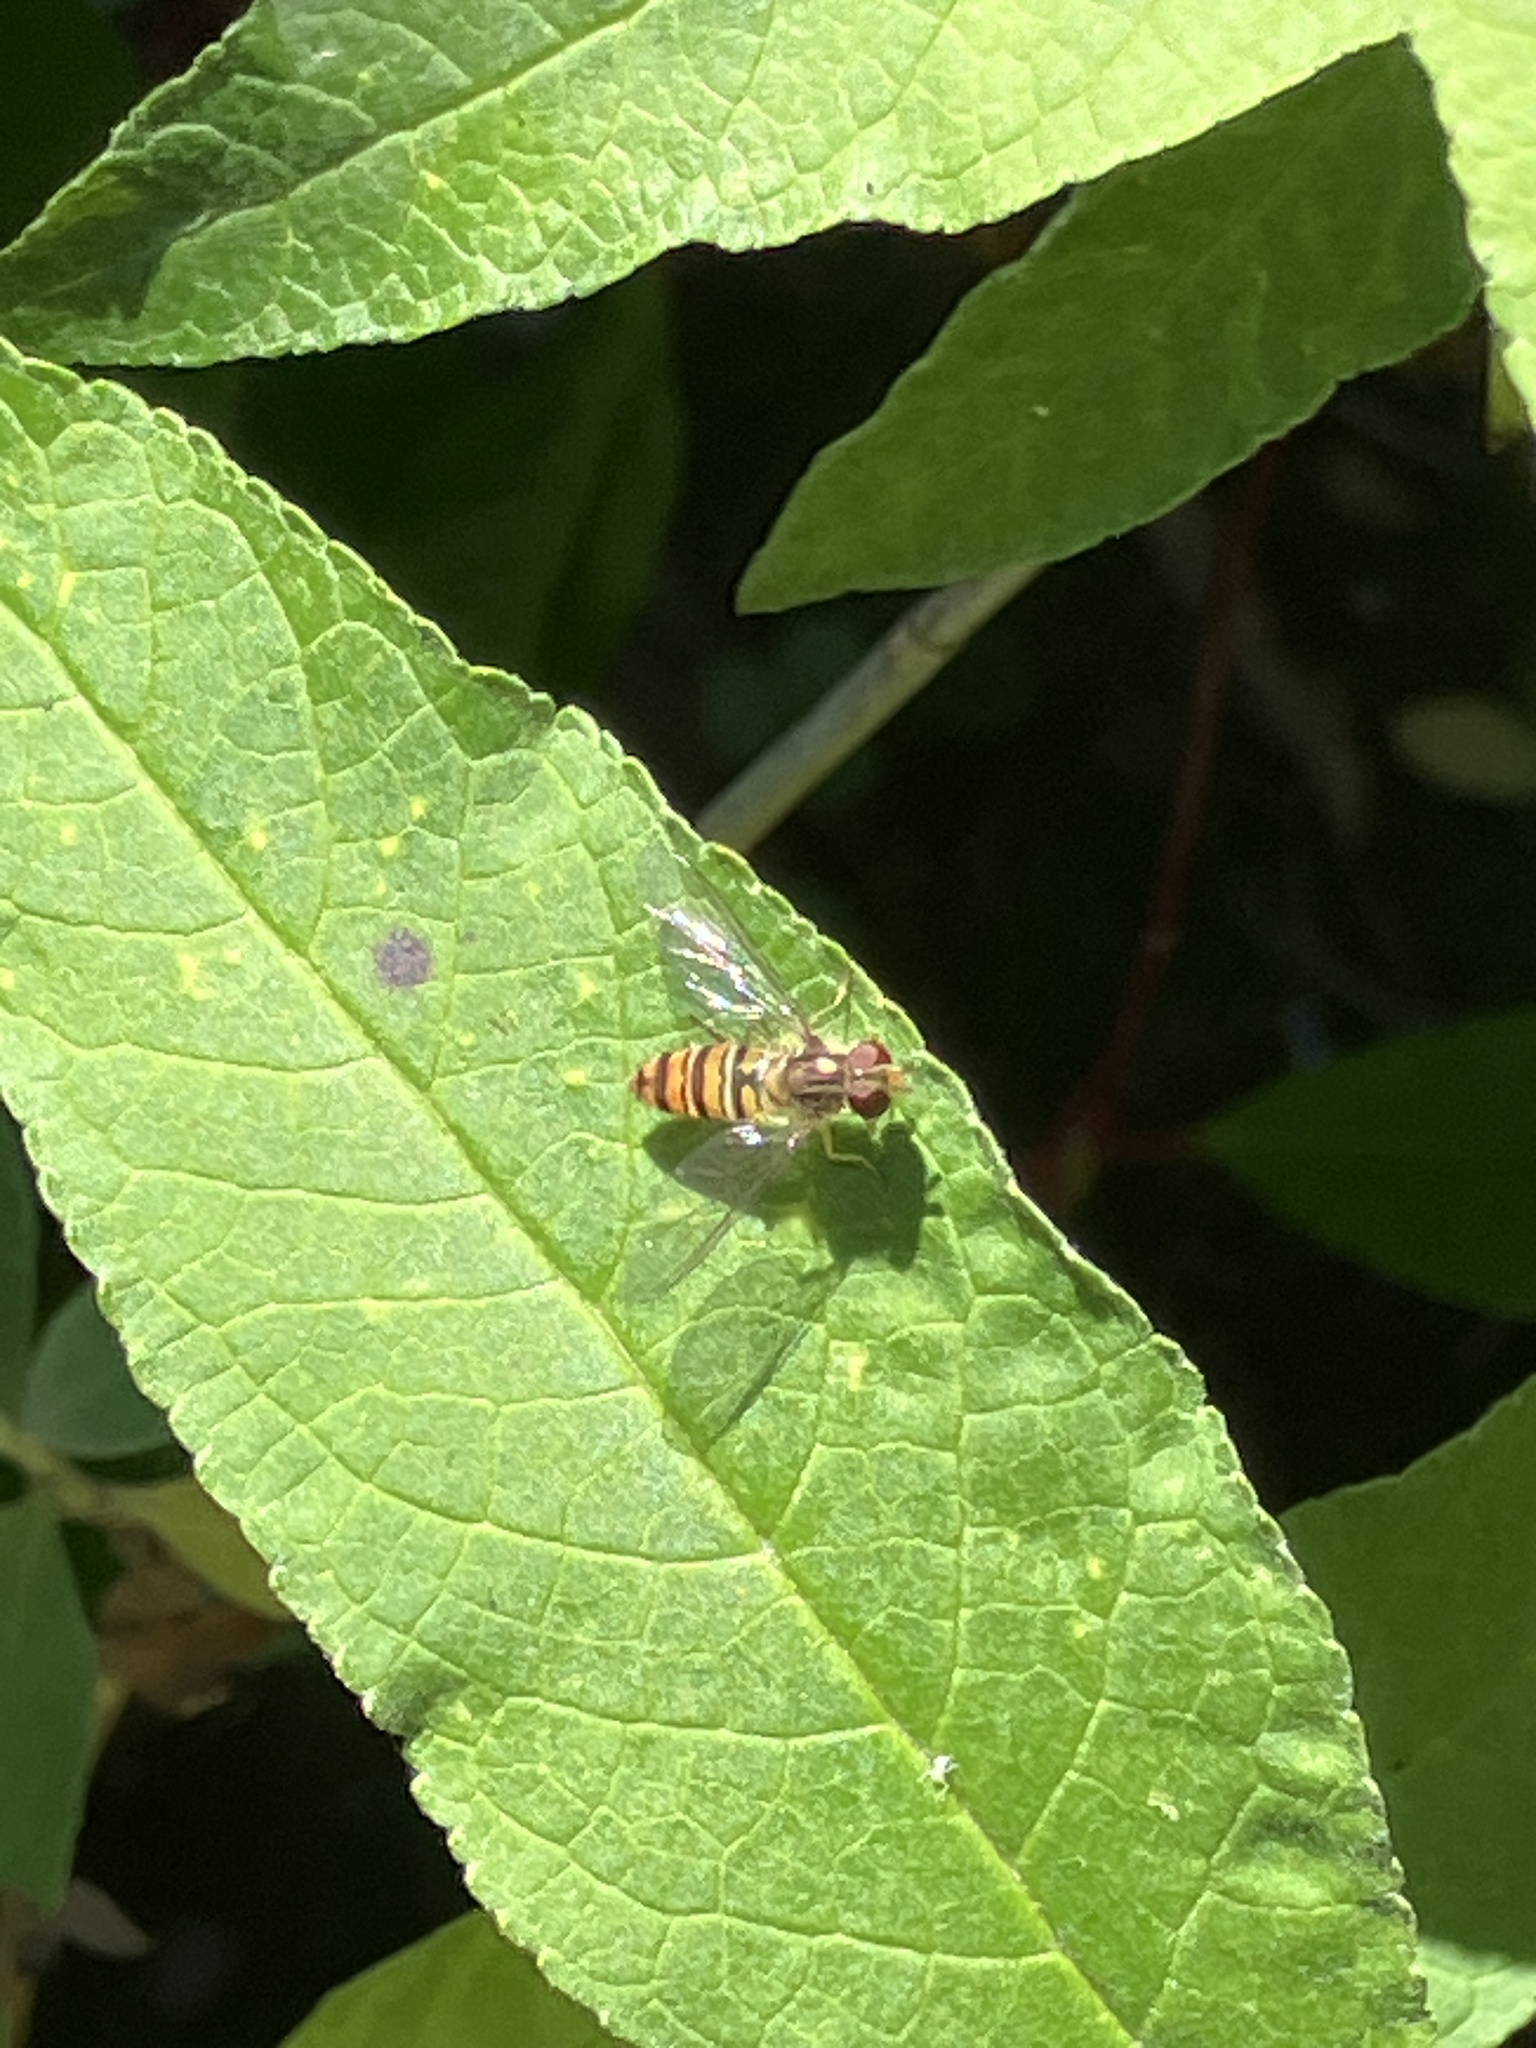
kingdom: Animalia
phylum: Arthropoda
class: Insecta
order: Diptera
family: Syrphidae
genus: Episyrphus
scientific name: Episyrphus balteatus
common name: Marmalade hoverfly
